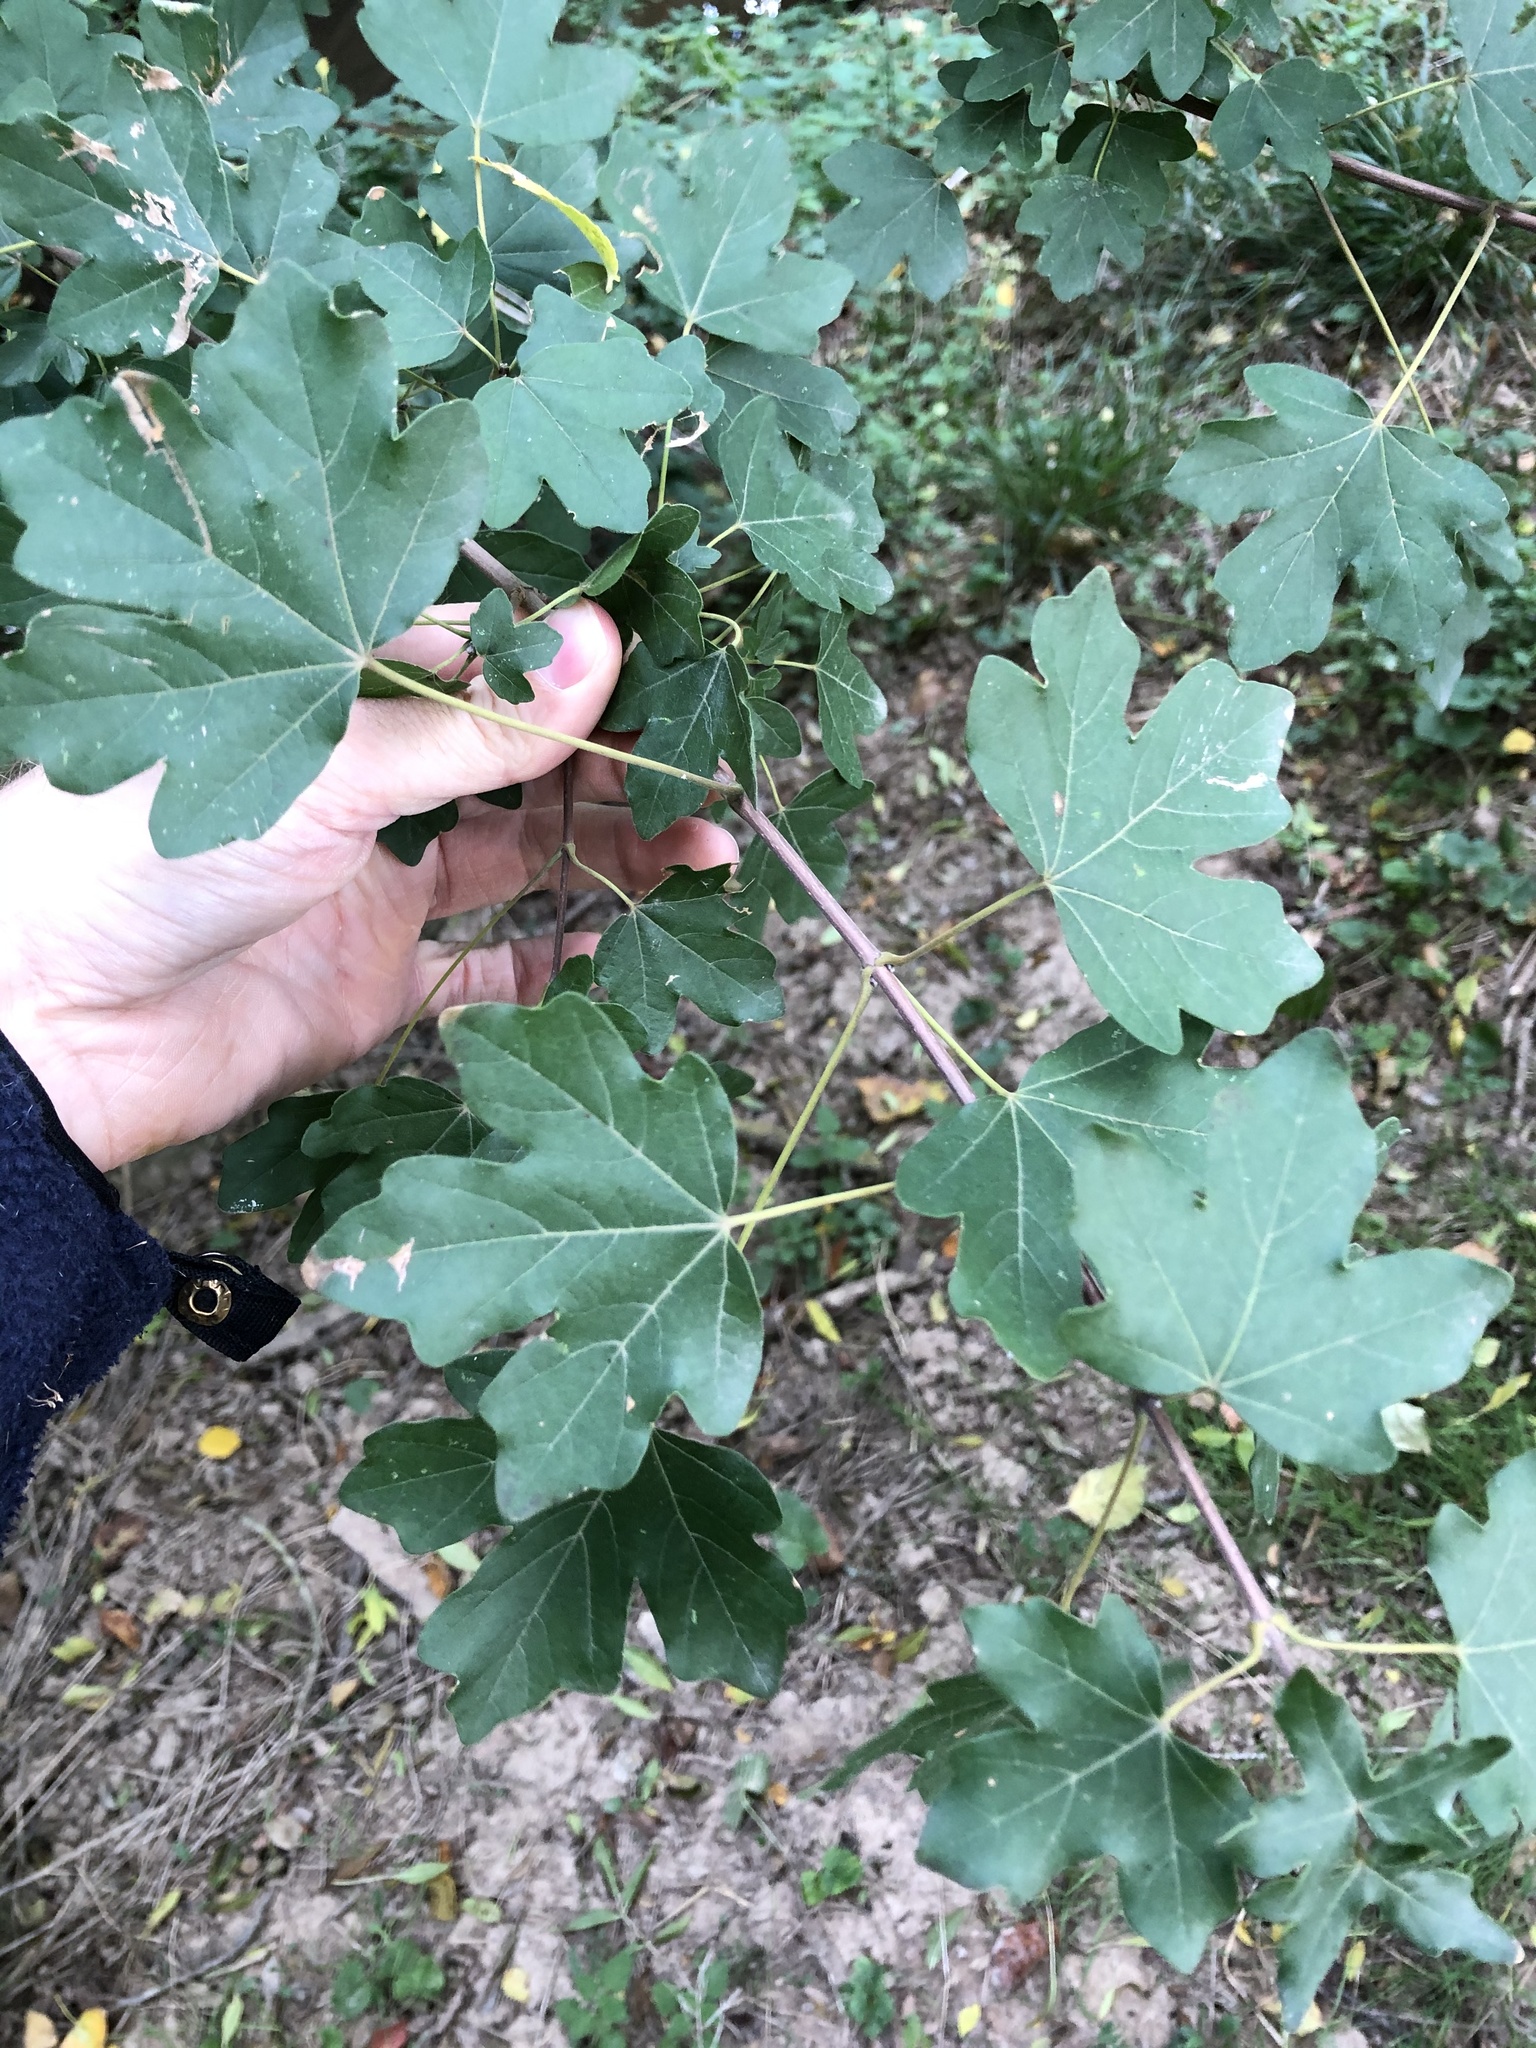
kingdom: Plantae
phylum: Tracheophyta
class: Magnoliopsida
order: Sapindales
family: Sapindaceae
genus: Acer
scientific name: Acer campestre
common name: Field maple
